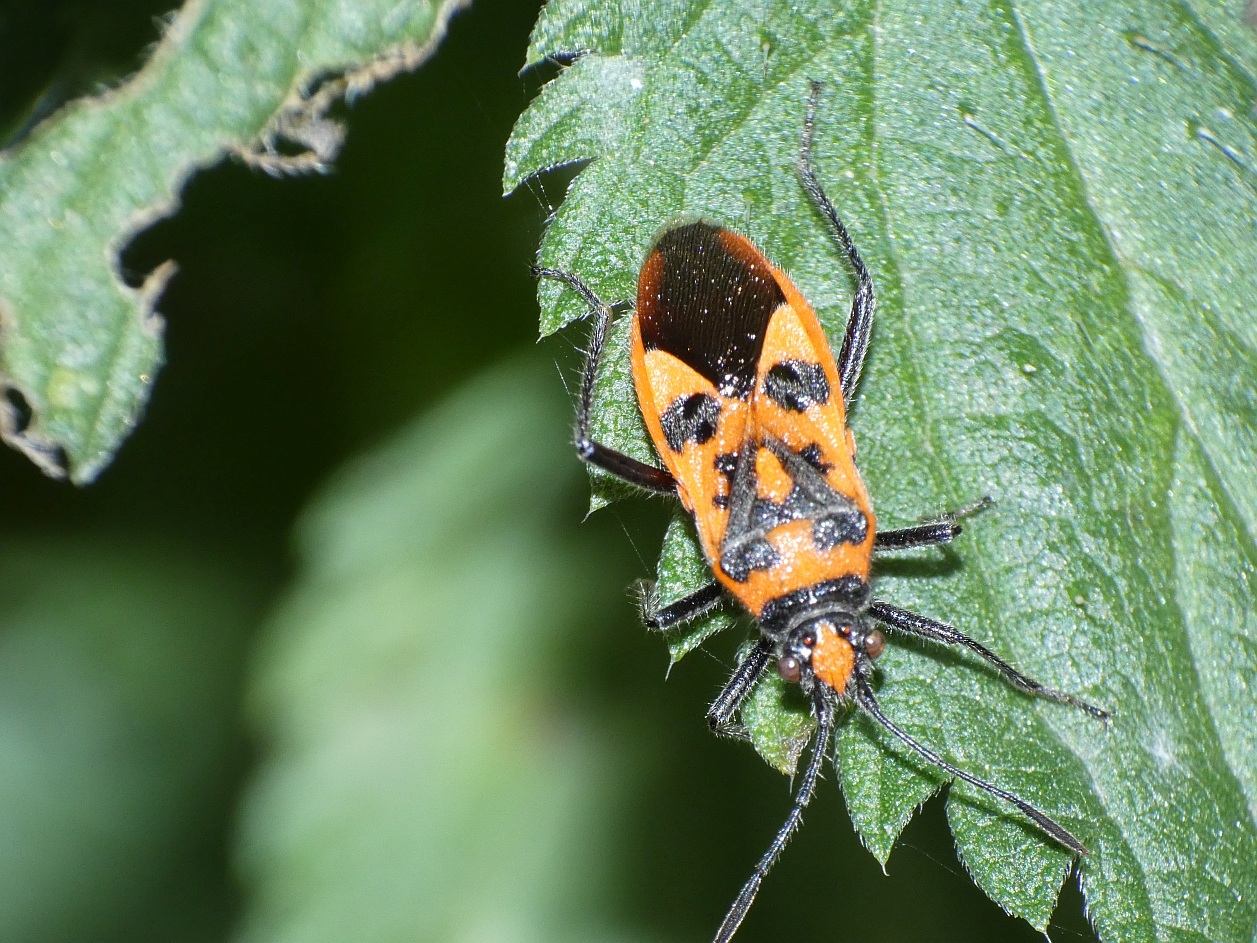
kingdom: Animalia
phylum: Arthropoda
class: Insecta
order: Hemiptera
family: Rhopalidae
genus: Corizus
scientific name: Corizus hyoscyami
